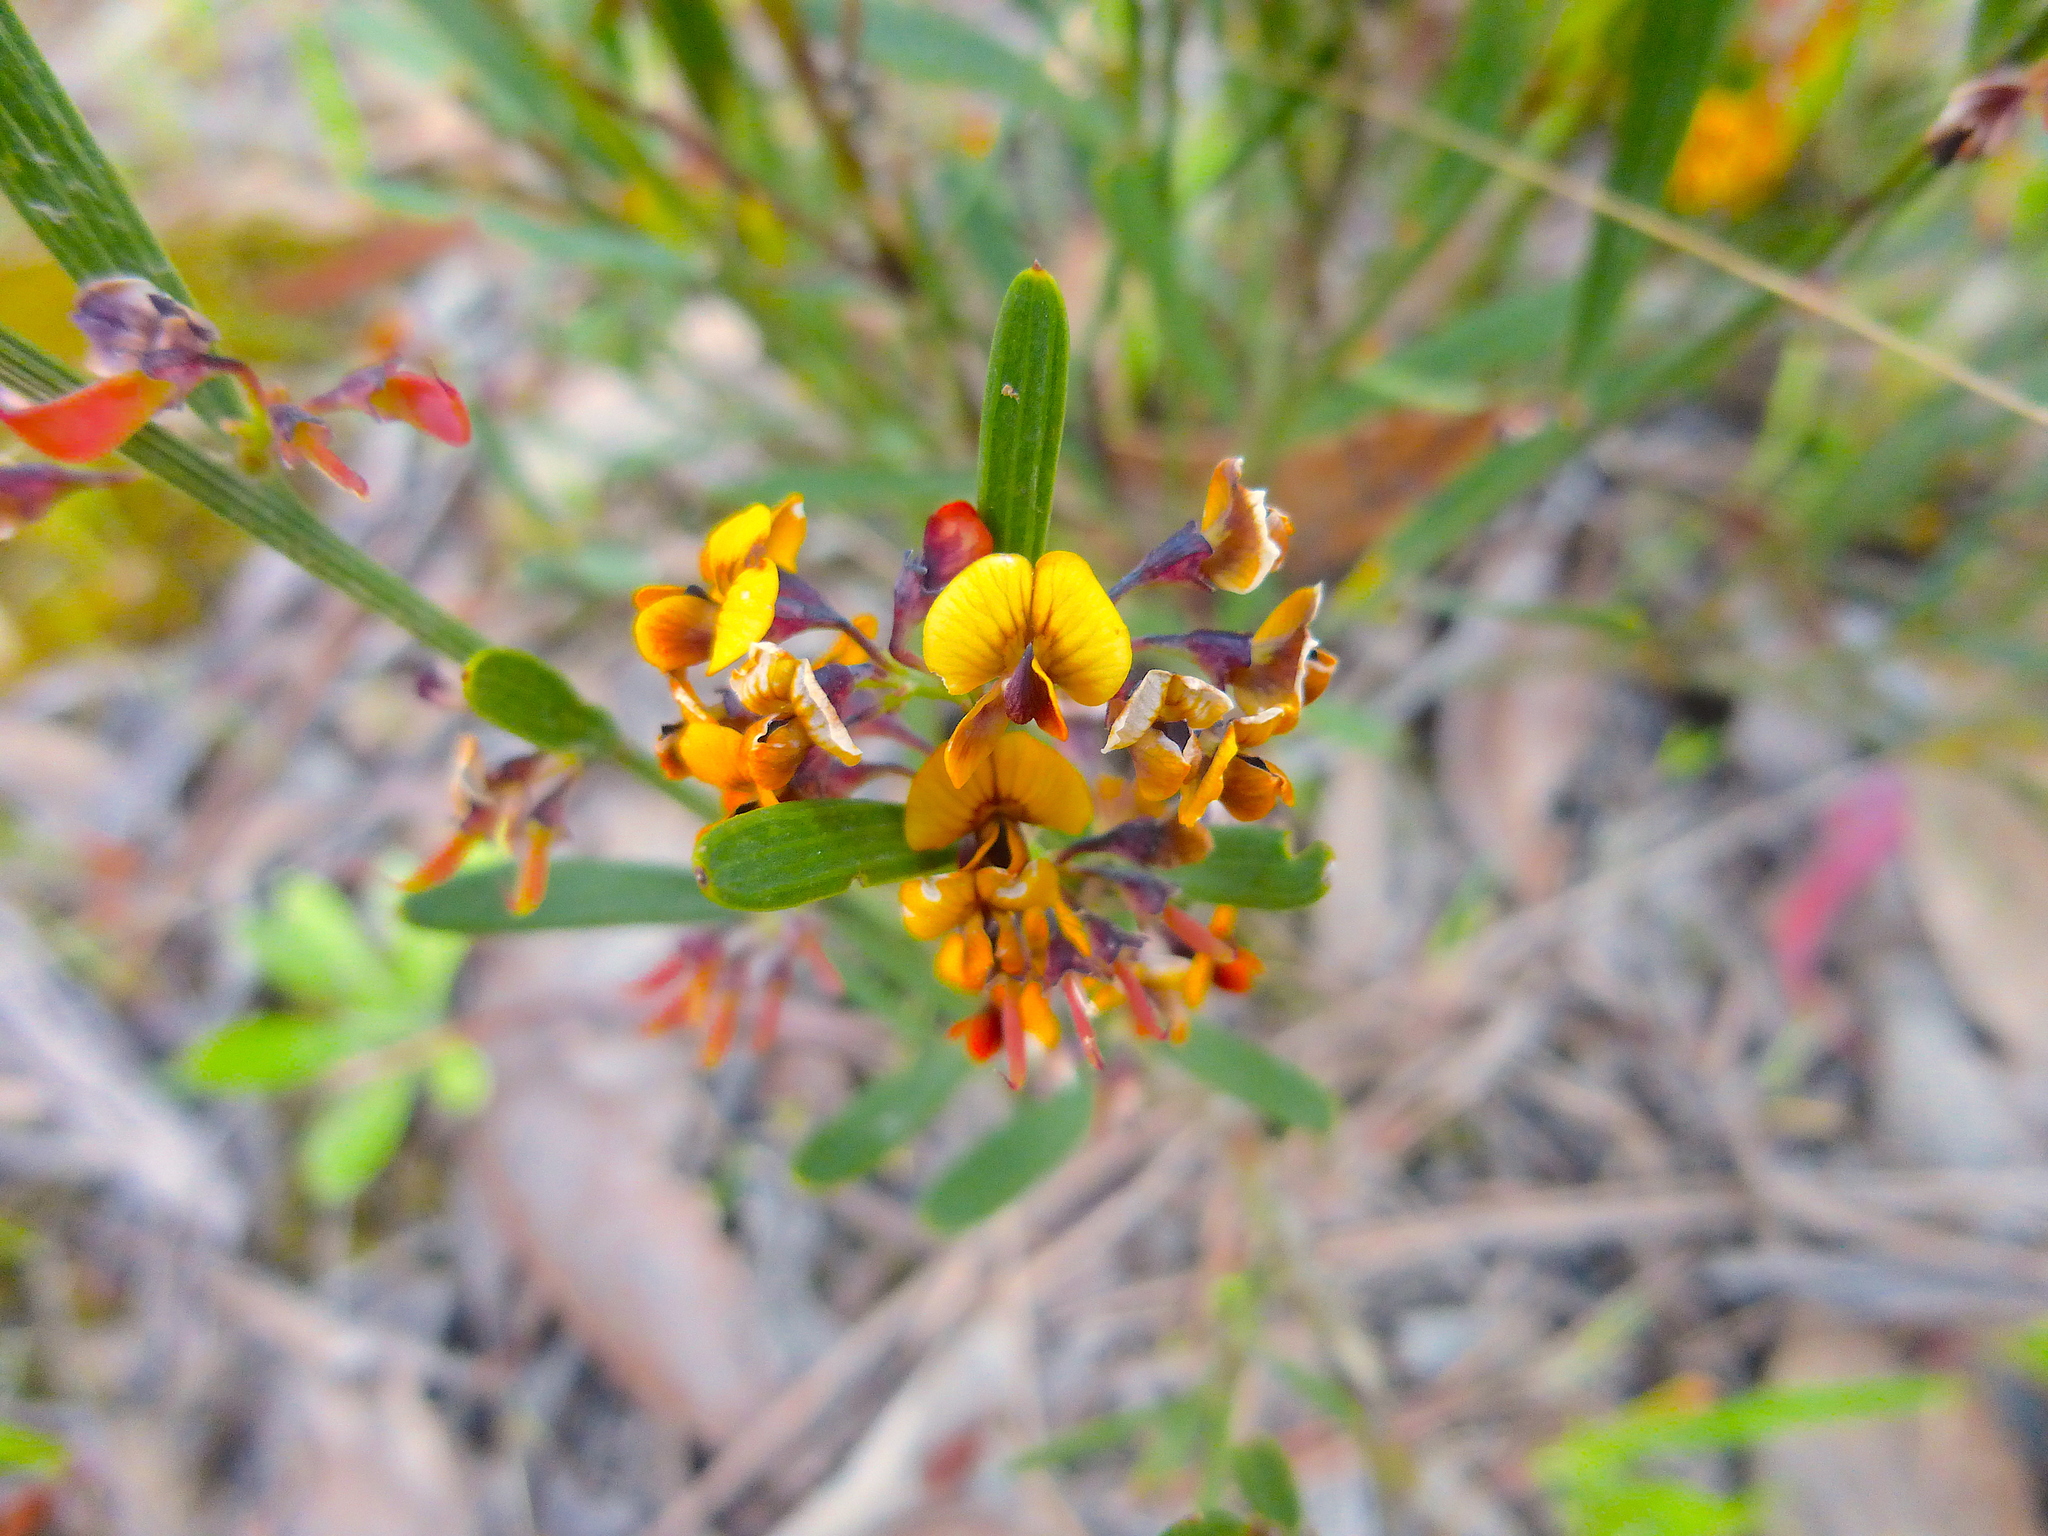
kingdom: Plantae
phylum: Tracheophyta
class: Magnoliopsida
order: Fabales
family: Fabaceae
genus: Daviesia
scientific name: Daviesia leptophylla
